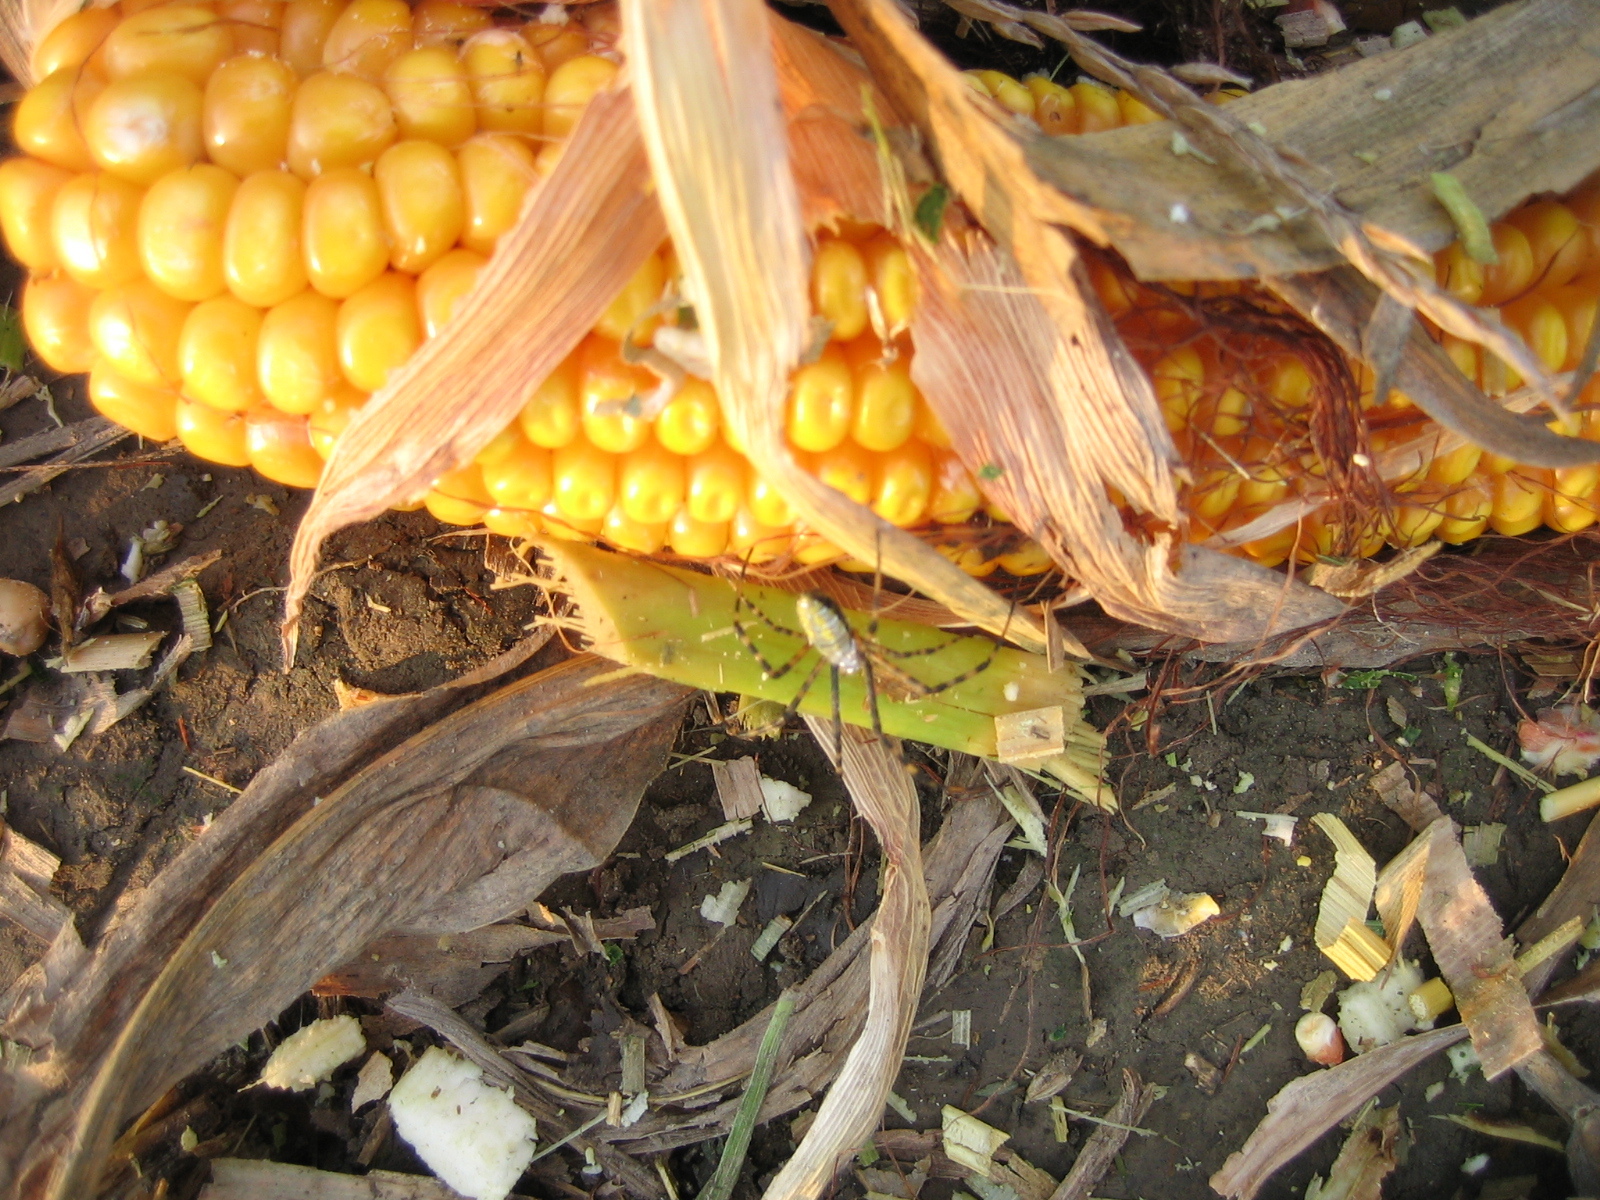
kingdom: Animalia
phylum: Arthropoda
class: Arachnida
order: Araneae
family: Araneidae
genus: Argiope
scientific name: Argiope trifasciata
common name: Banded garden spider
